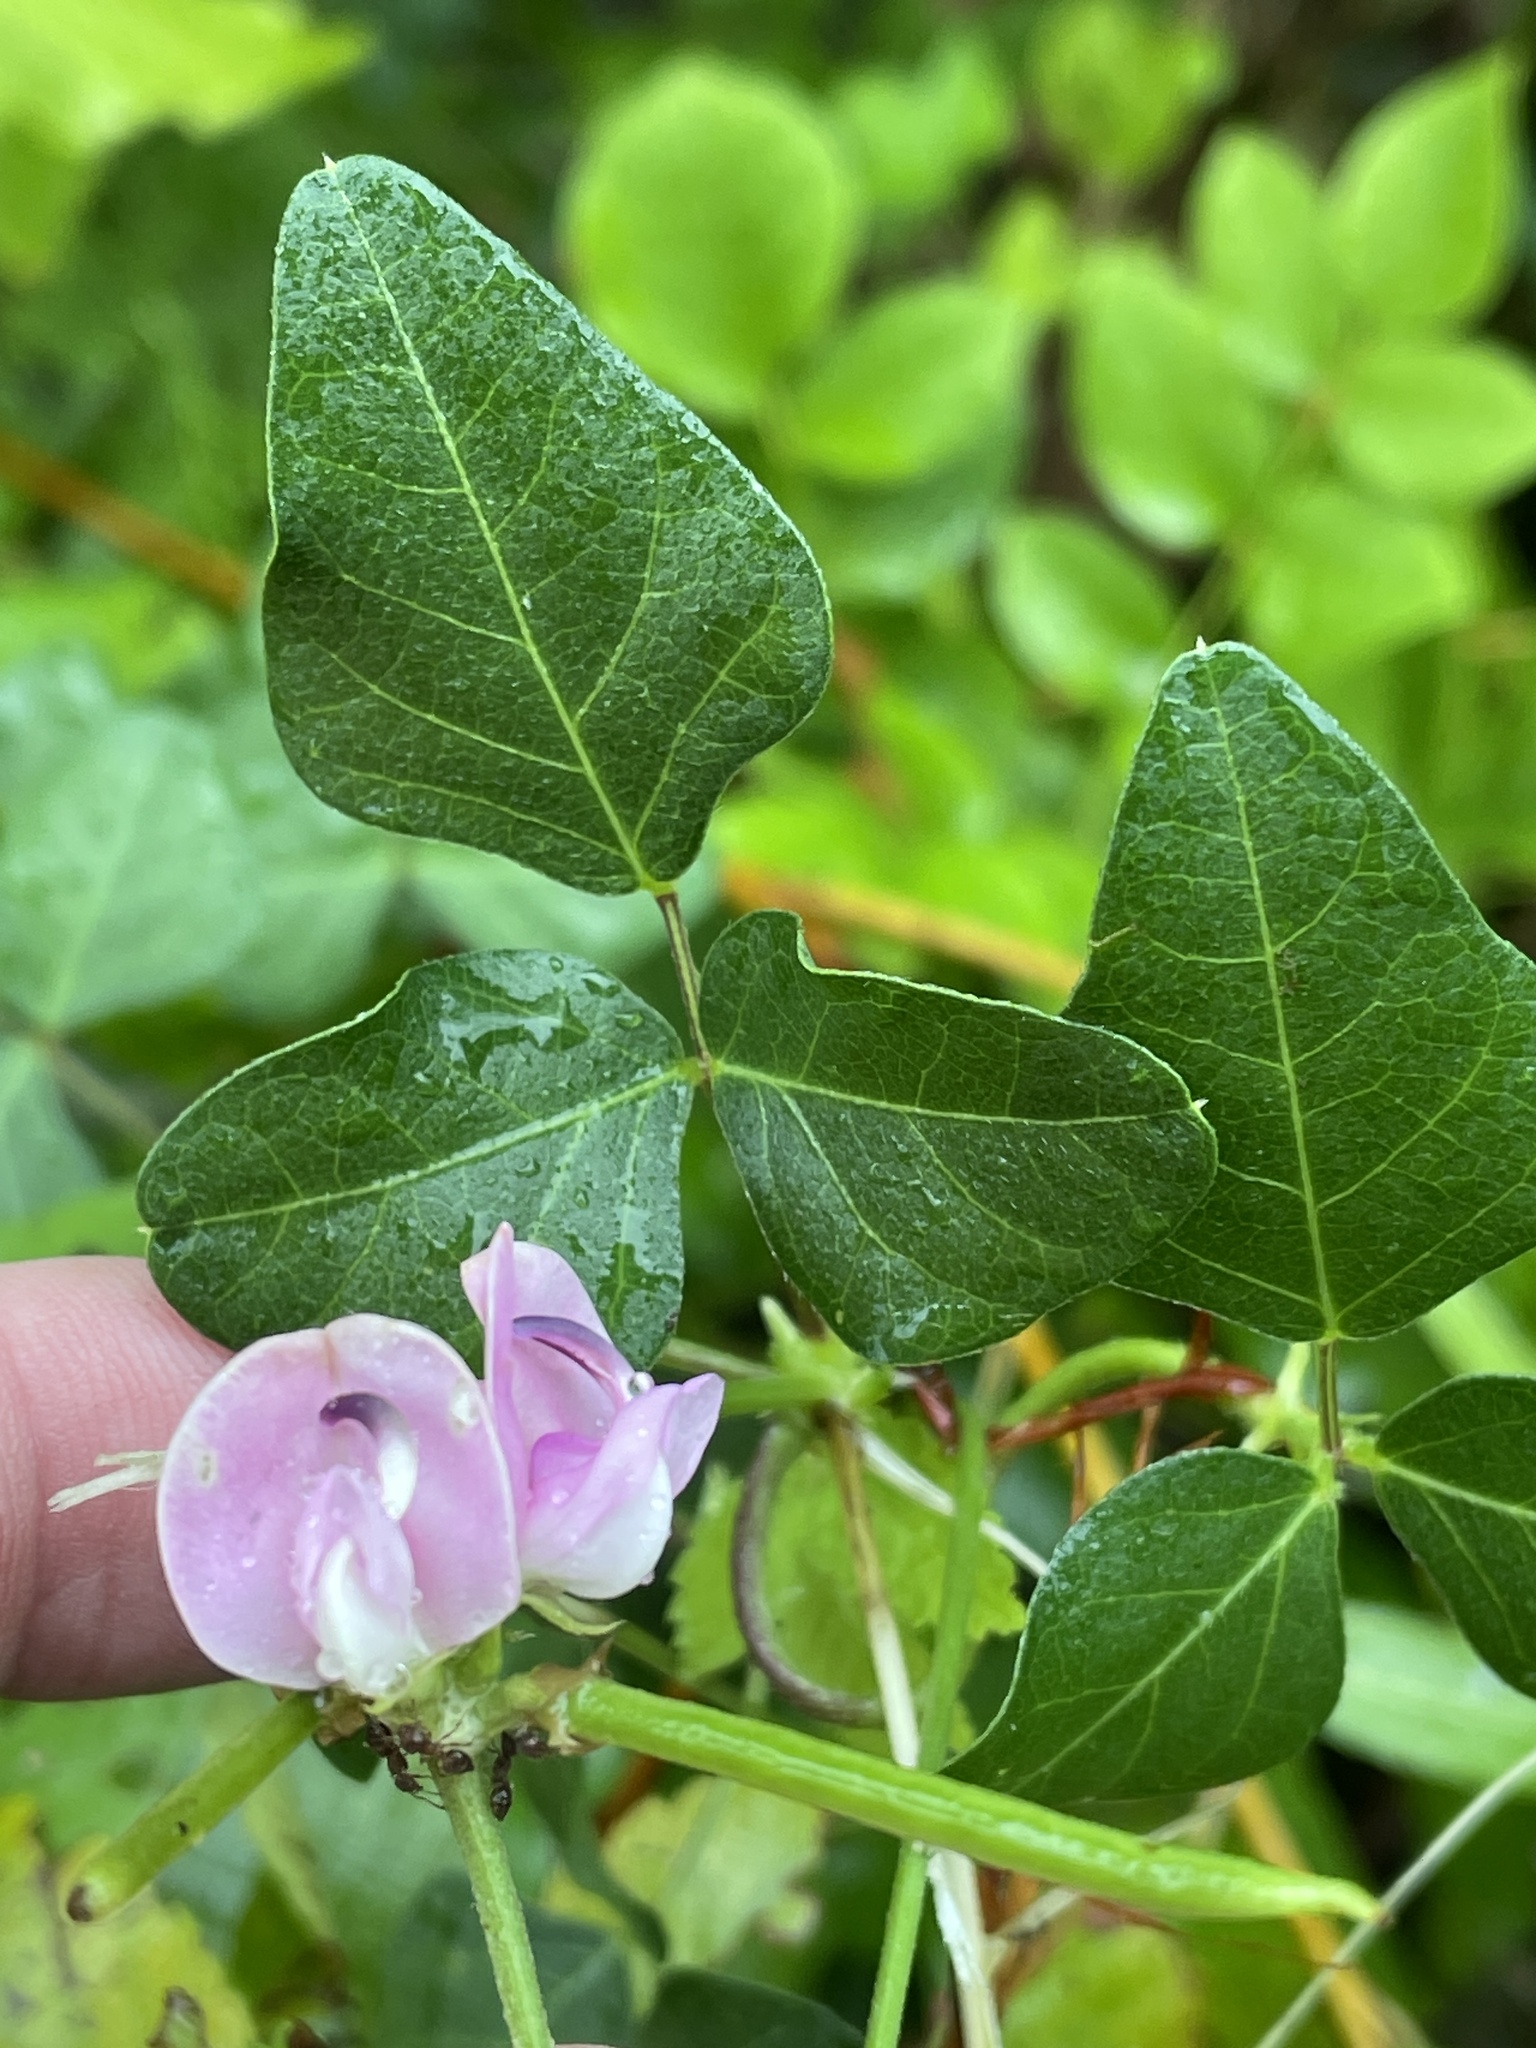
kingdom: Plantae
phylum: Tracheophyta
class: Magnoliopsida
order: Fabales
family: Fabaceae
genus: Strophostyles
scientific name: Strophostyles helvola
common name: Trailing wild bean
